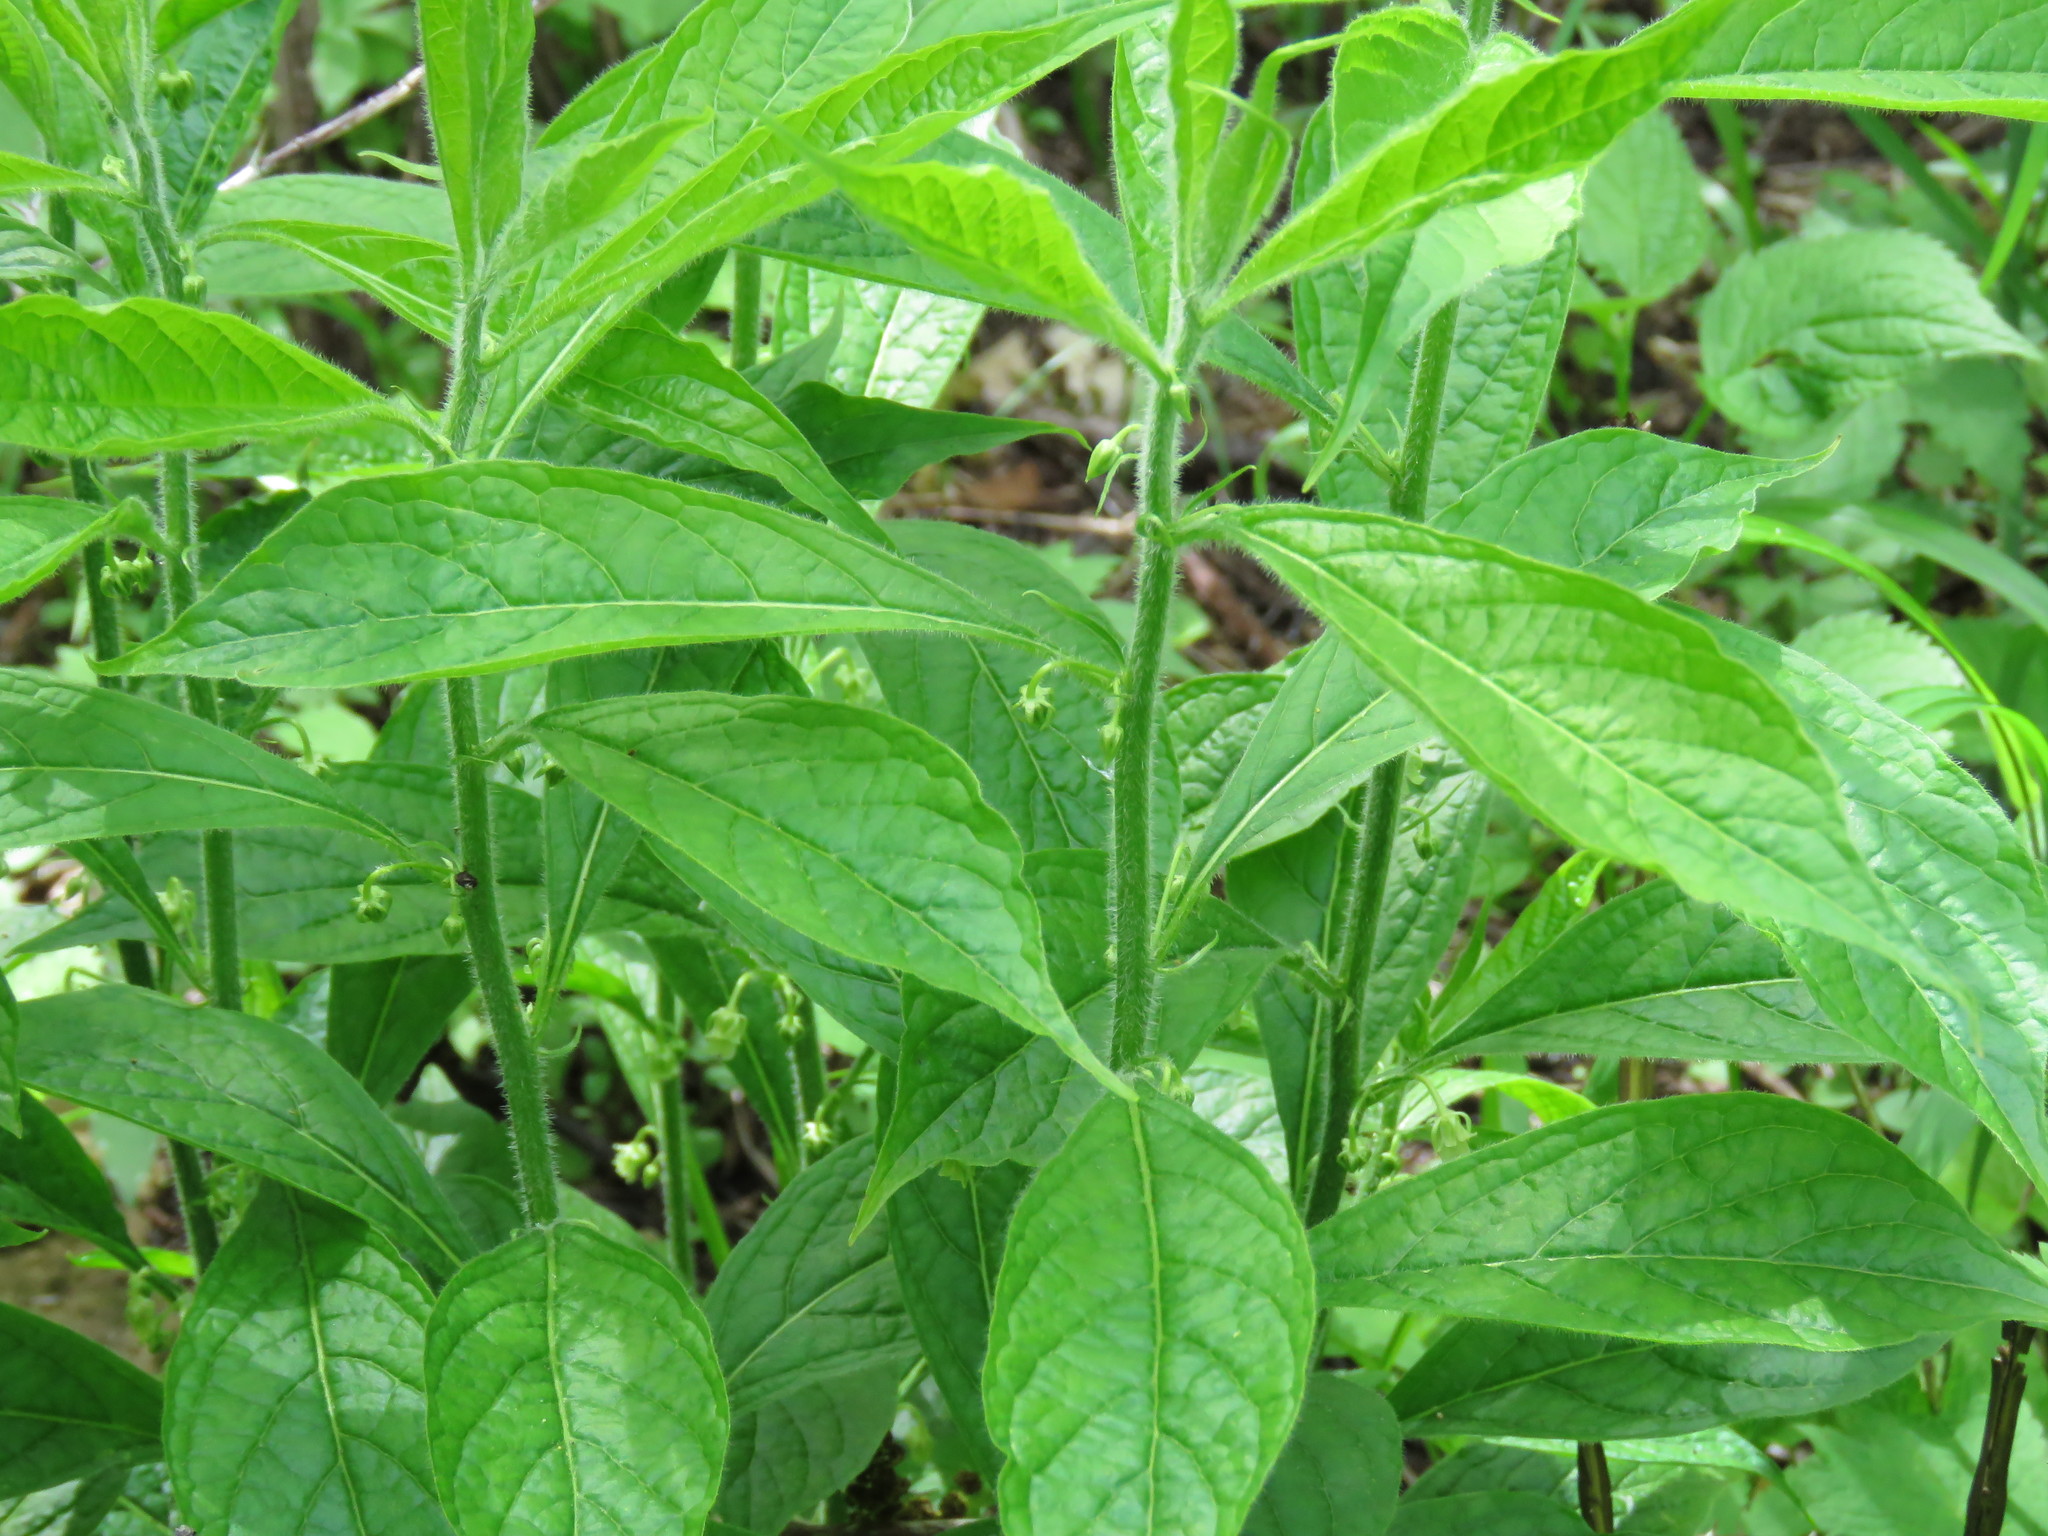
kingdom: Plantae
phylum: Tracheophyta
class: Magnoliopsida
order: Malpighiales
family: Violaceae
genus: Cubelium
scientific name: Cubelium concolor
